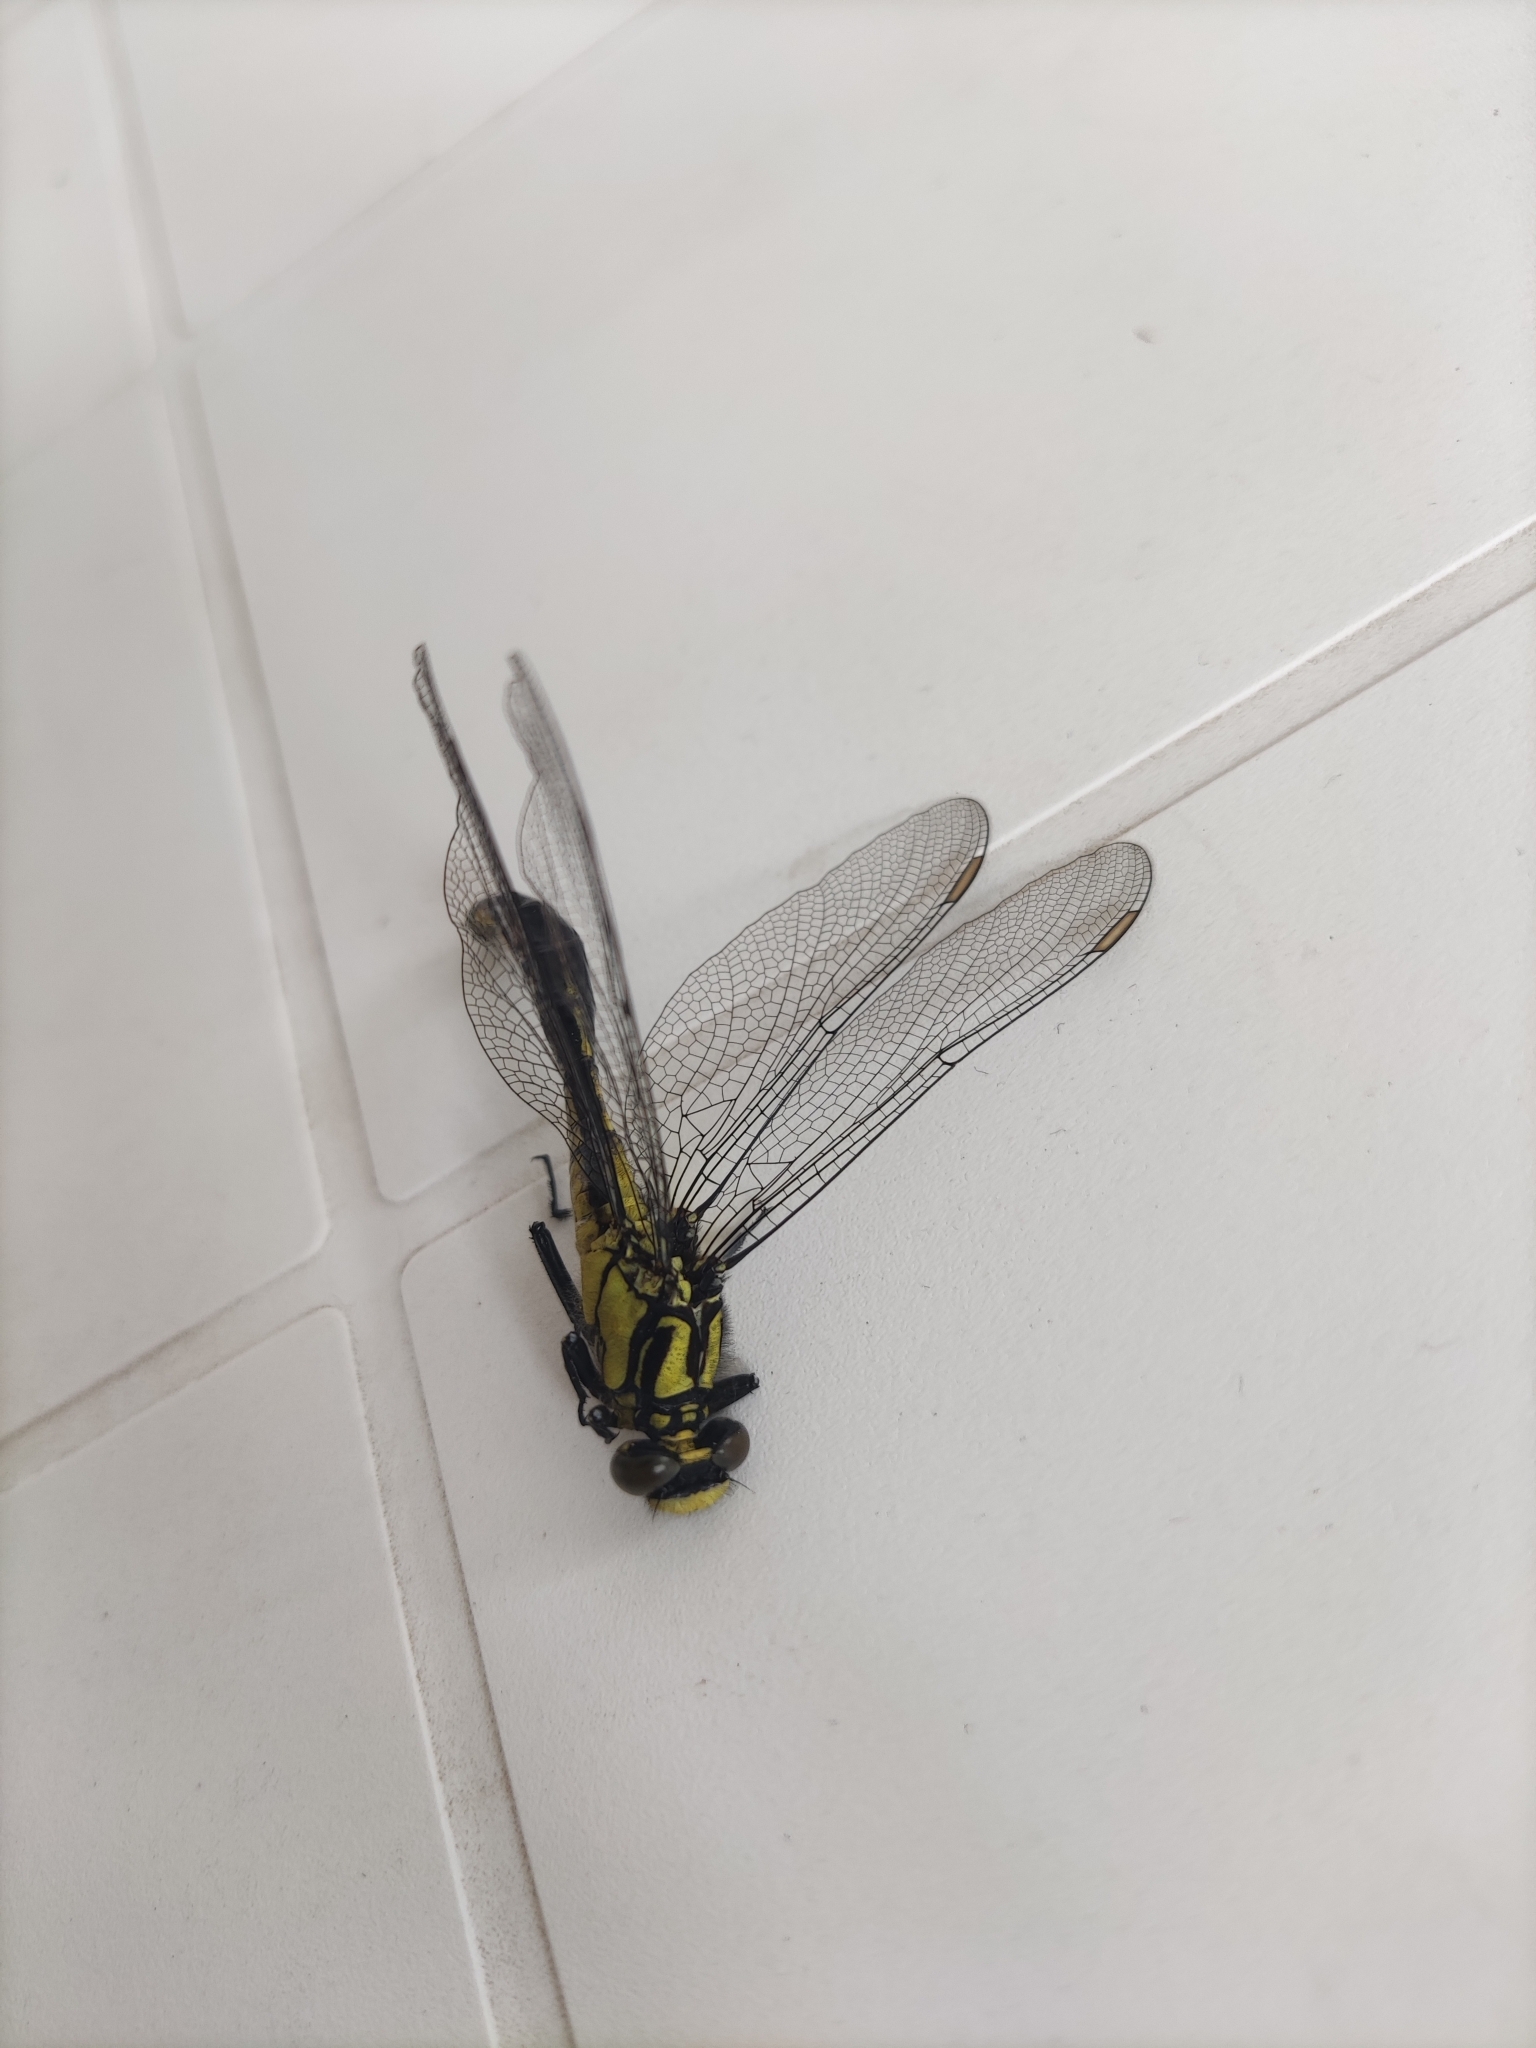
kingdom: Animalia
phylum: Arthropoda
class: Insecta
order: Odonata
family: Gomphidae
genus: Gomphus
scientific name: Gomphus vulgatissimus
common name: Club-tailed dragonfly
